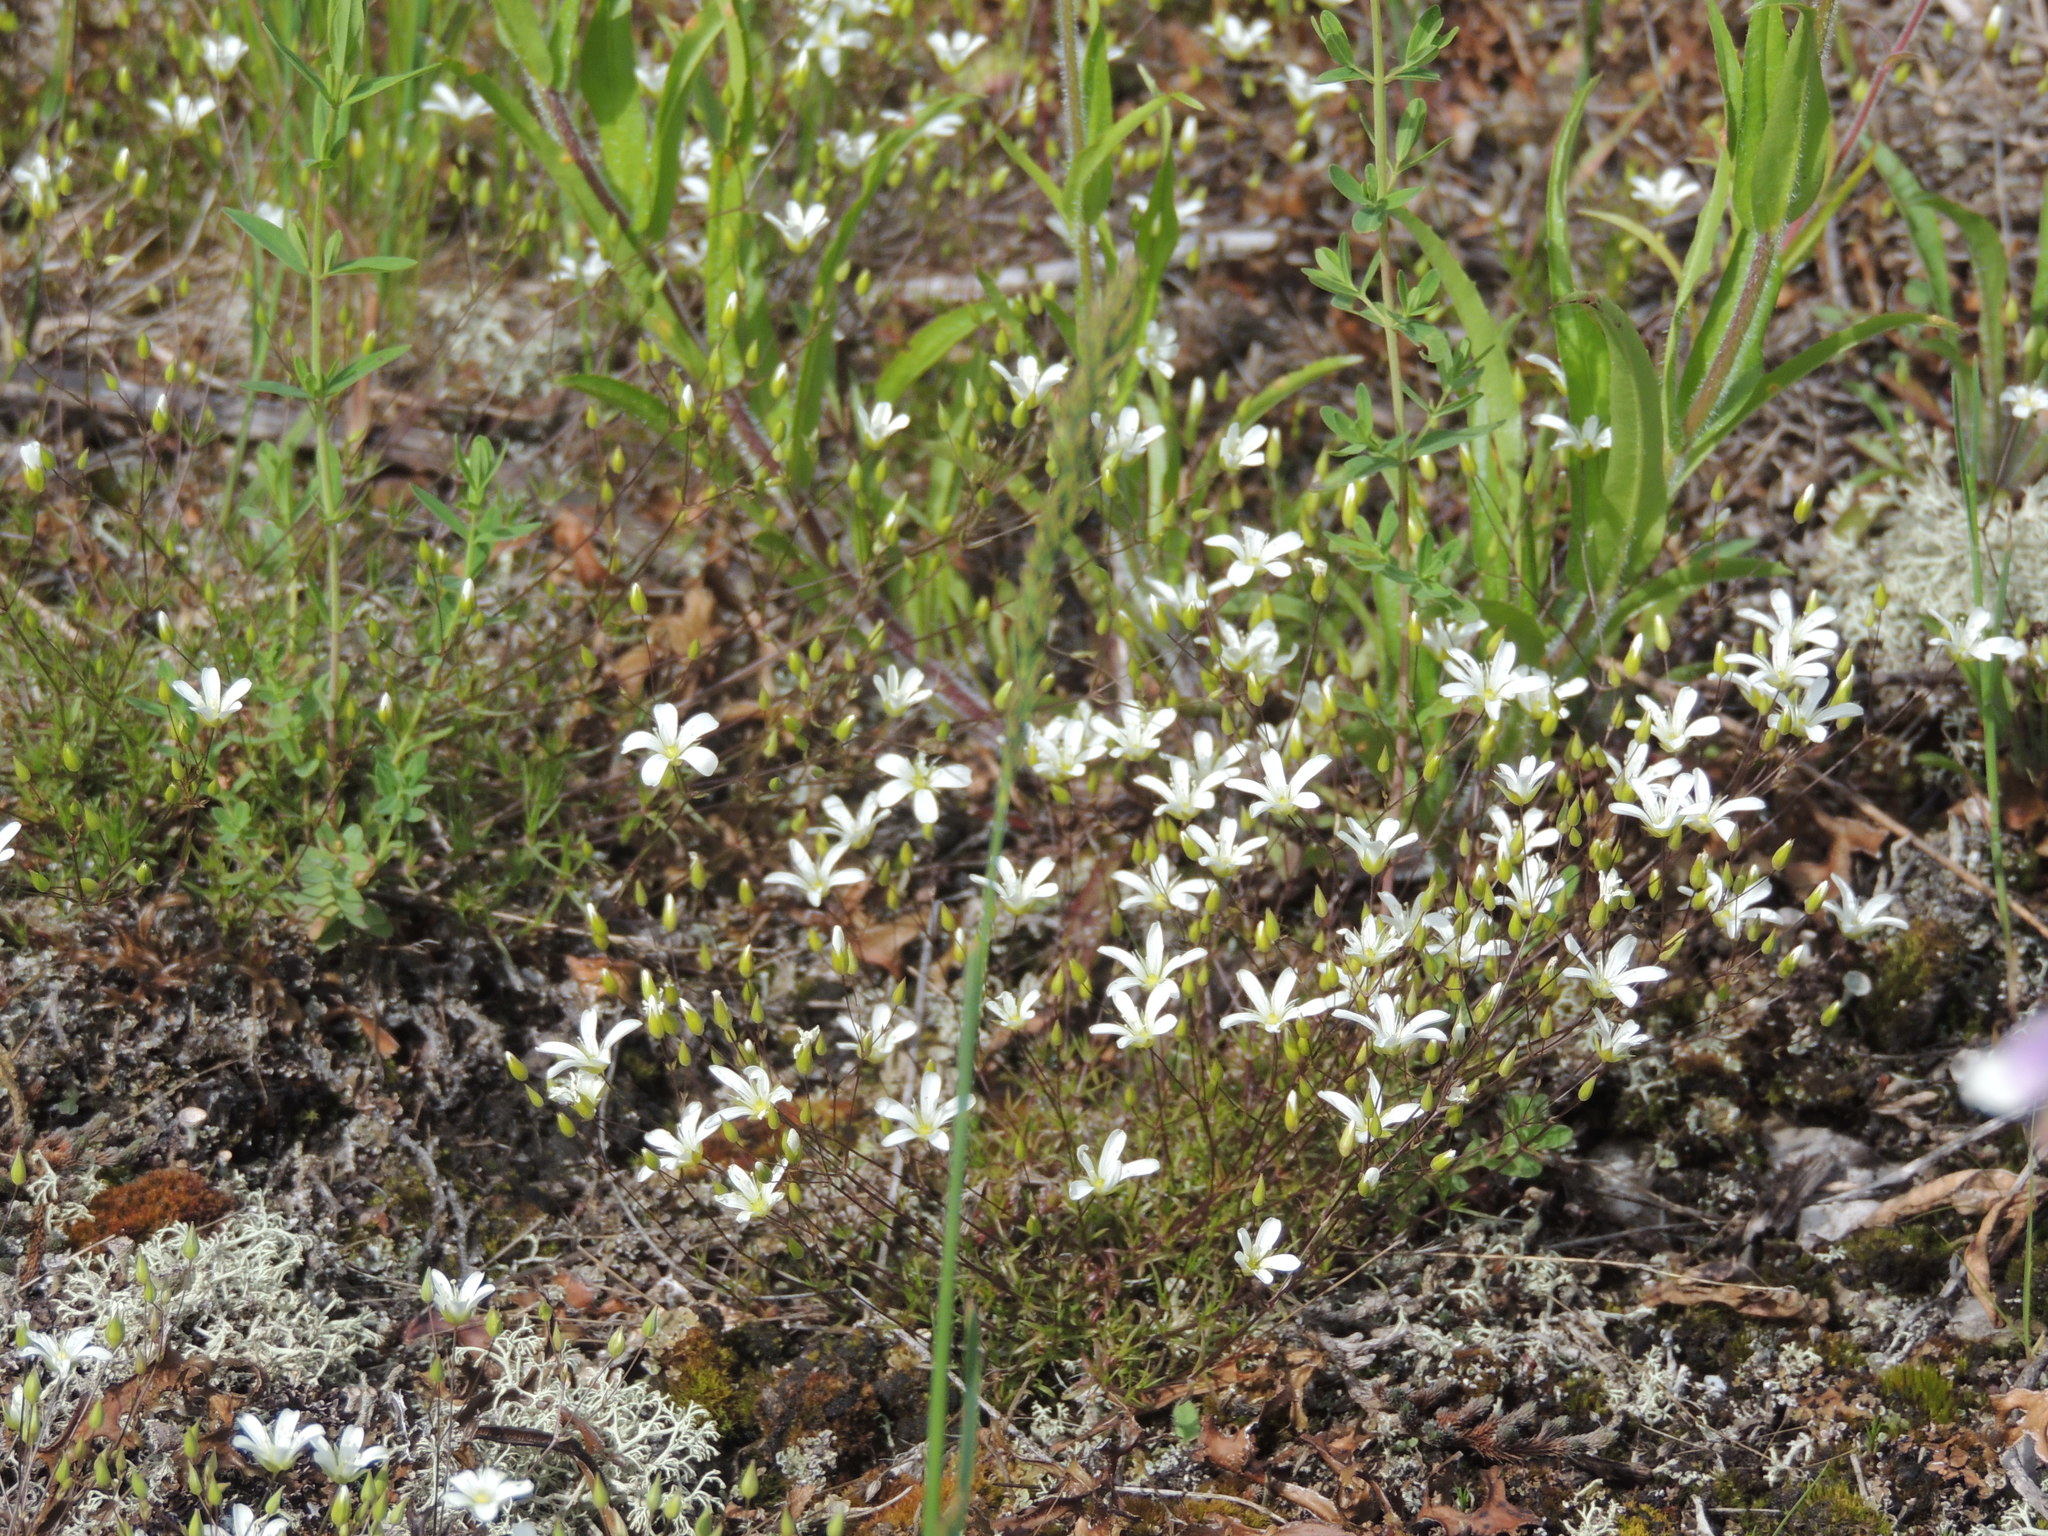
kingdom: Plantae
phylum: Tracheophyta
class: Magnoliopsida
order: Caryophyllales
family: Caryophyllaceae
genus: Sabulina
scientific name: Sabulina michauxii
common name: Michaux's stitchwort
